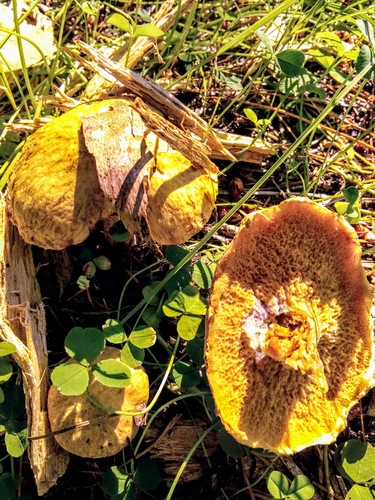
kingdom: Fungi
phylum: Basidiomycota
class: Agaricomycetes
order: Boletales
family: Suillaceae
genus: Suillus
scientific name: Suillus americanus
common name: Chicken fat mushroom
